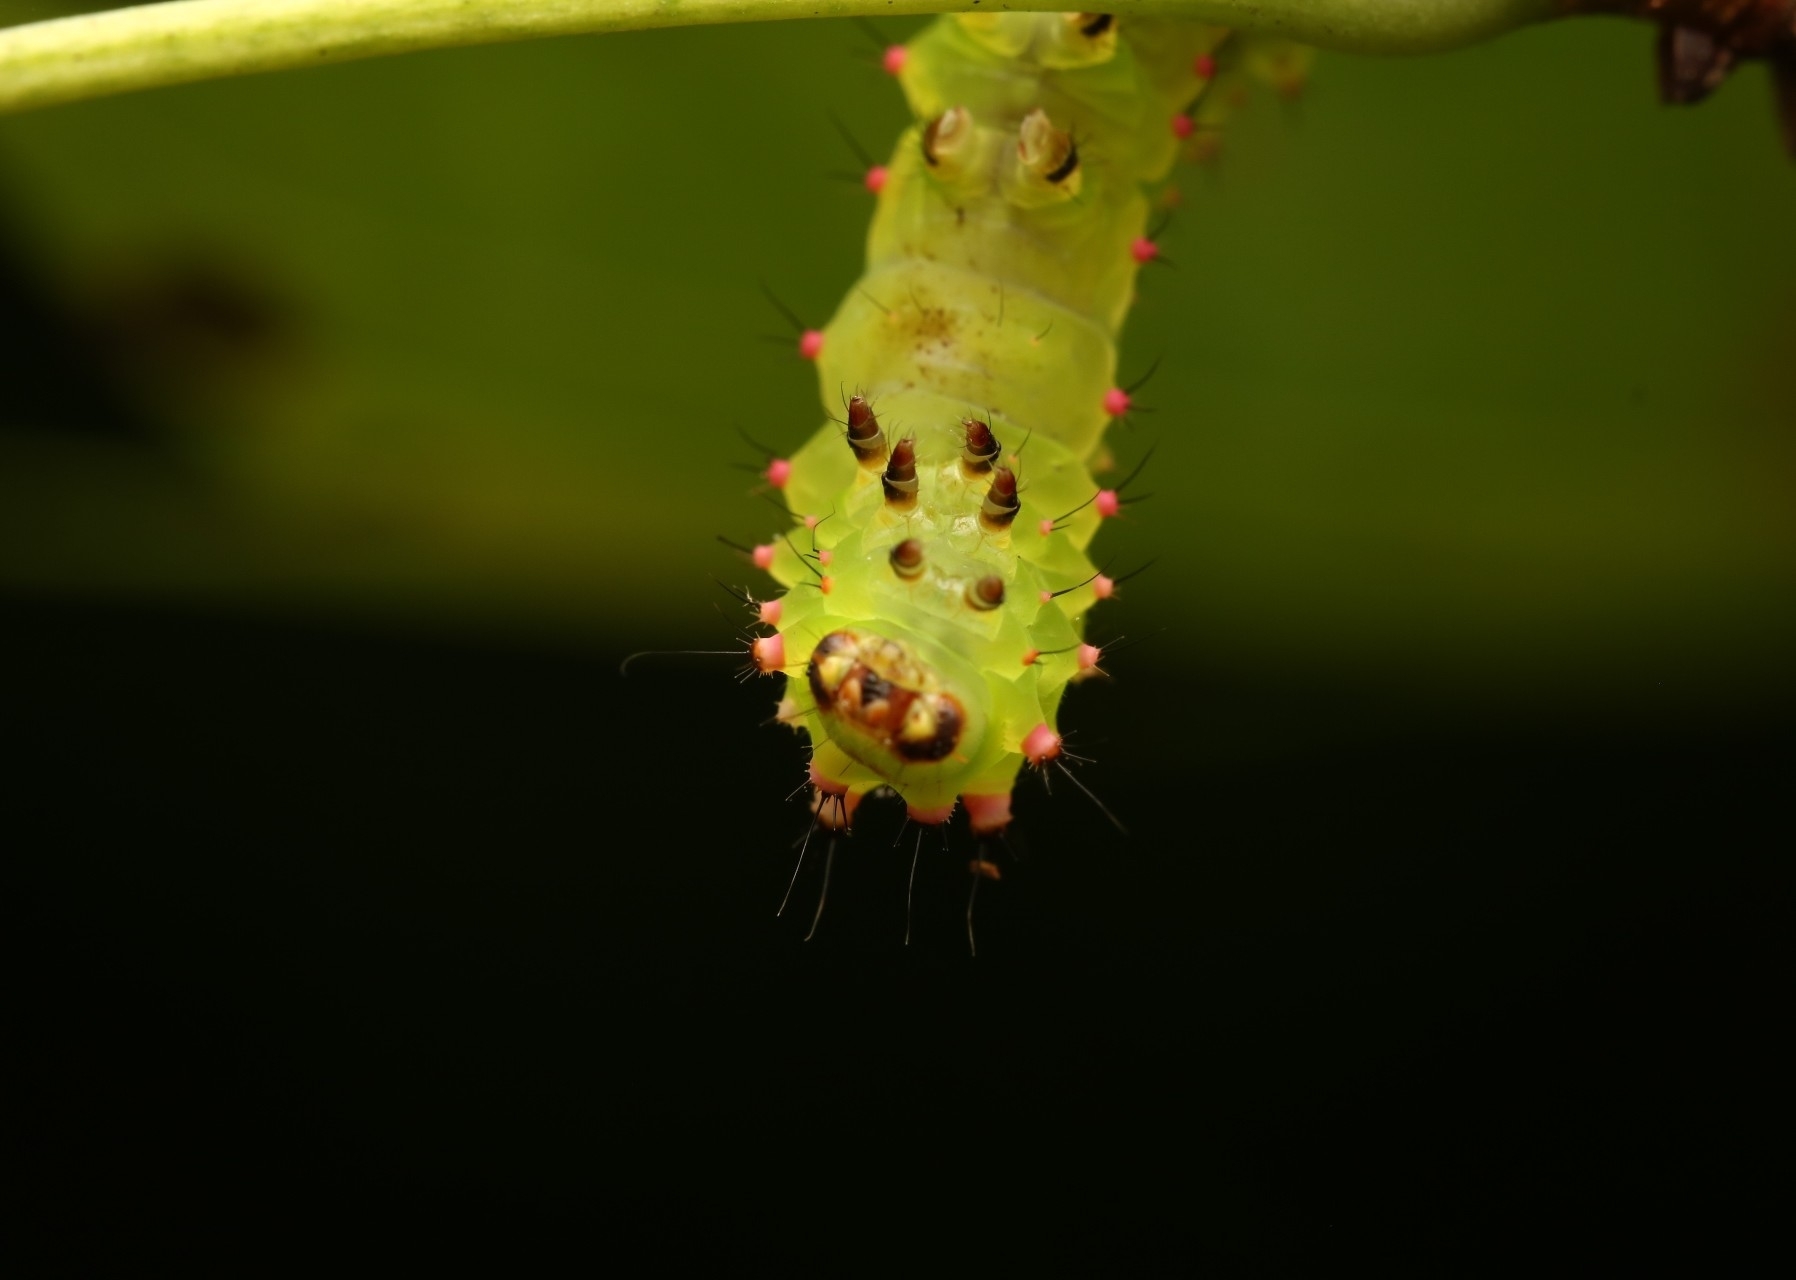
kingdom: Animalia
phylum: Arthropoda
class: Insecta
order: Lepidoptera
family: Saturniidae
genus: Actias
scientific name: Actias luna
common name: Luna moth
